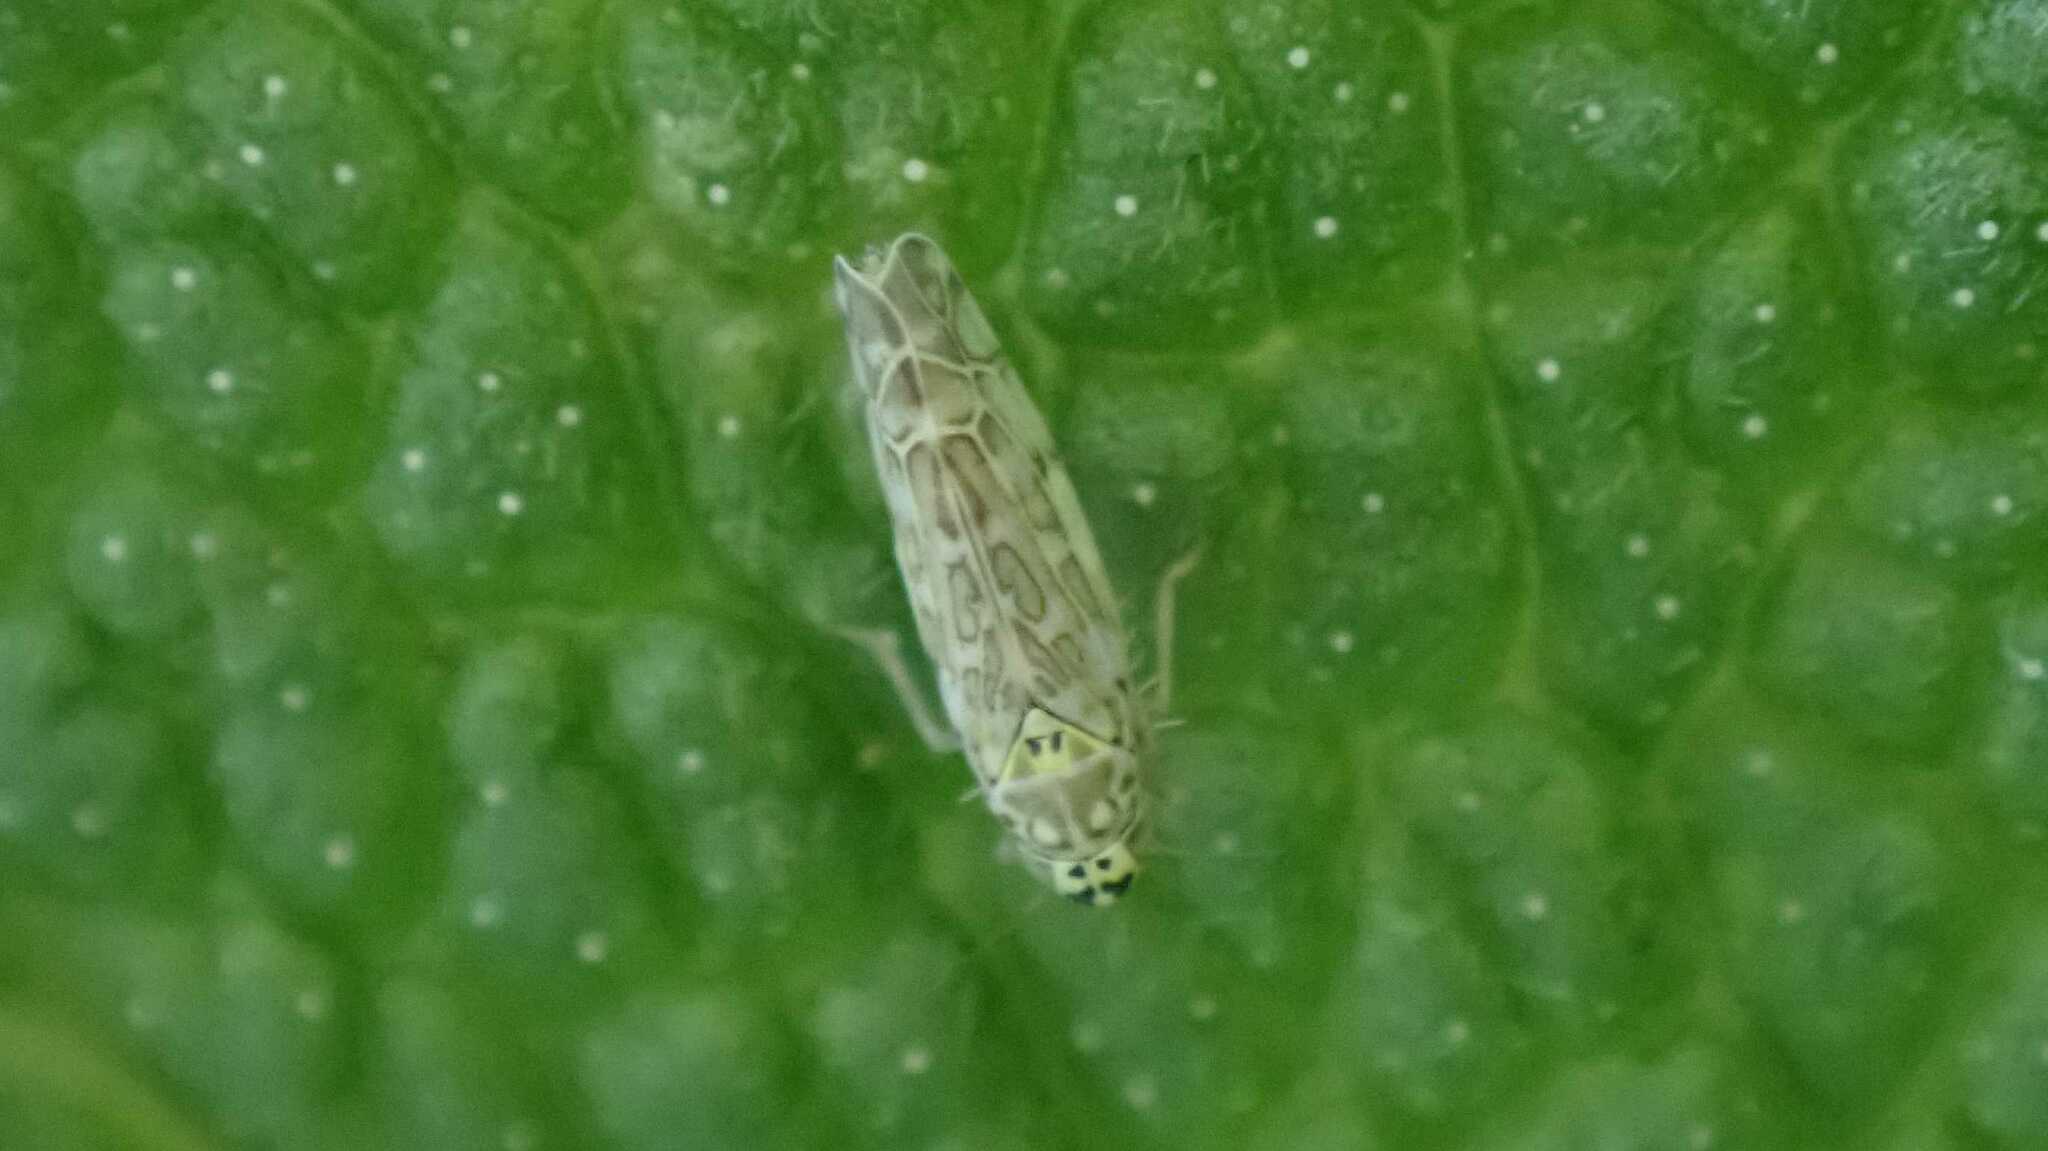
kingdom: Animalia
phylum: Arthropoda
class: Insecta
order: Hemiptera
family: Cicadellidae
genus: Eupteryx
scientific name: Eupteryx decemnotata
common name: Ligurian leafhopper
